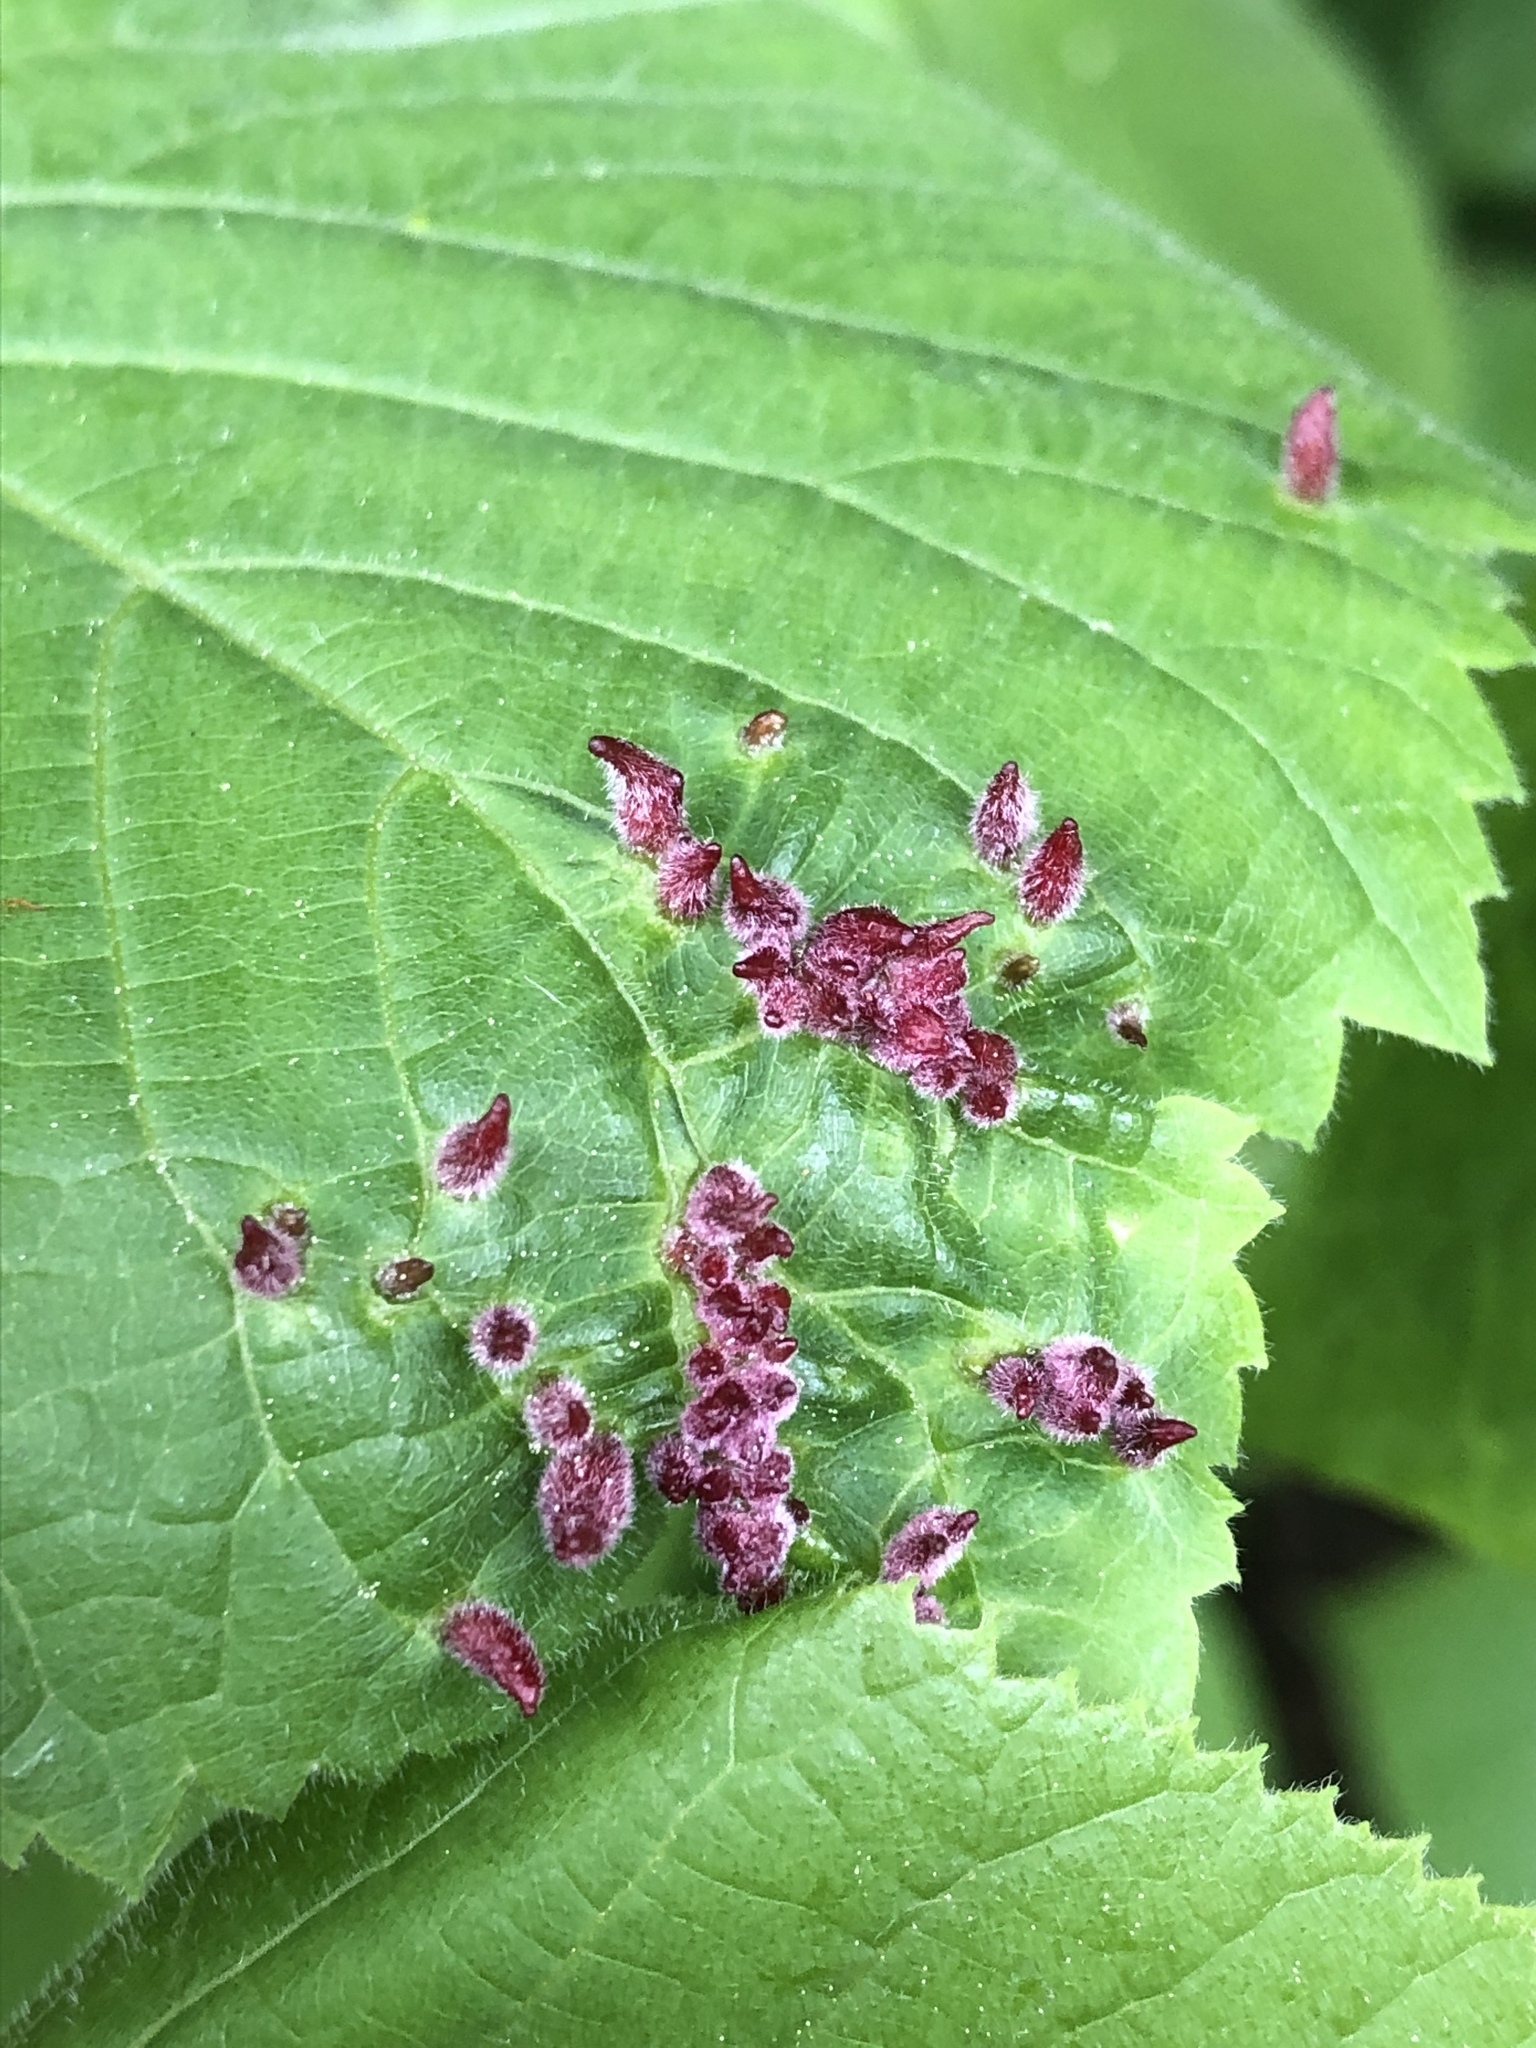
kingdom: Animalia
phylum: Arthropoda
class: Arachnida
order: Trombidiformes
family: Eriophyidae
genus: Eriophyes
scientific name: Eriophyes tiliae
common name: Red nail gall mite
